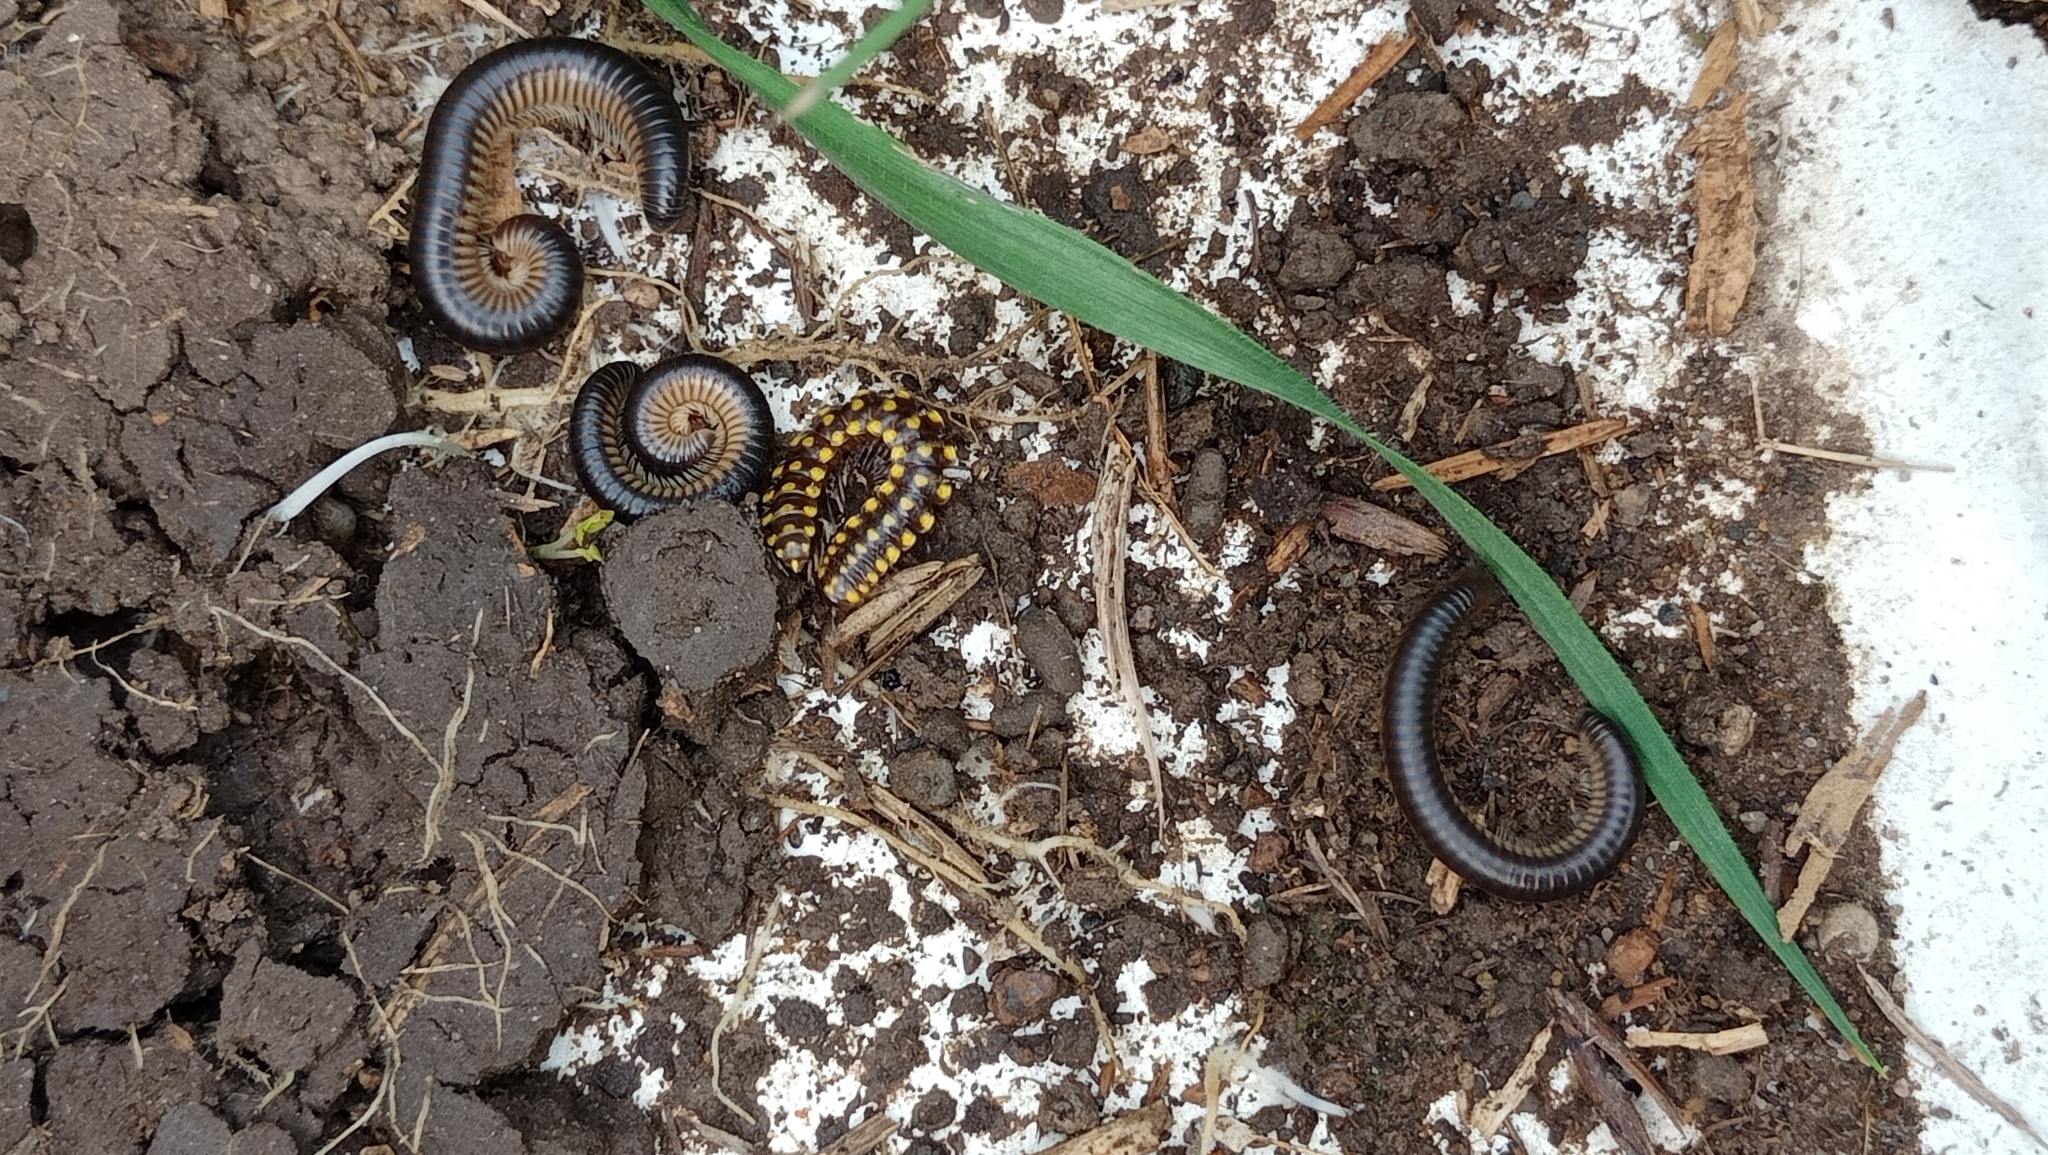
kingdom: Animalia
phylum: Arthropoda
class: Diplopoda
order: Julida
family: Julidae
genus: Pachyiulus
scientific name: Pachyiulus flavipes
